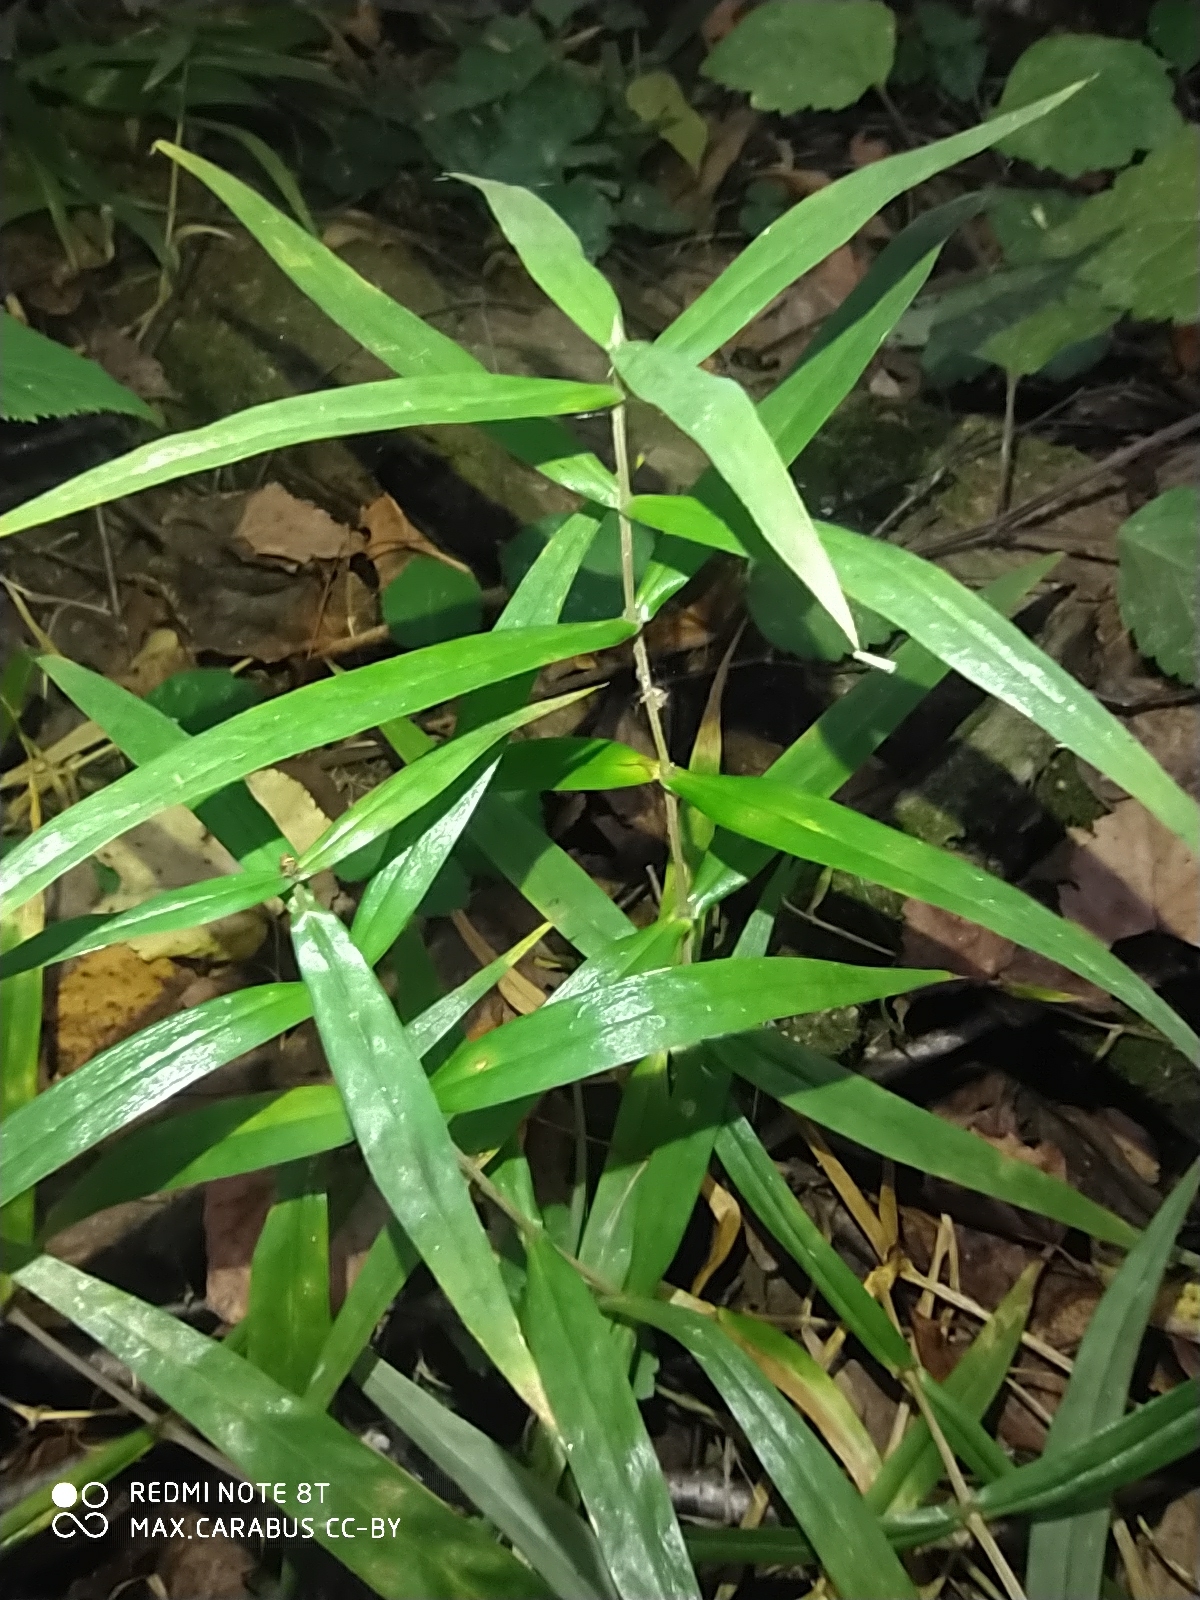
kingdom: Plantae
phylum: Tracheophyta
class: Magnoliopsida
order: Caryophyllales
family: Caryophyllaceae
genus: Rabelera
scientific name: Rabelera holostea
